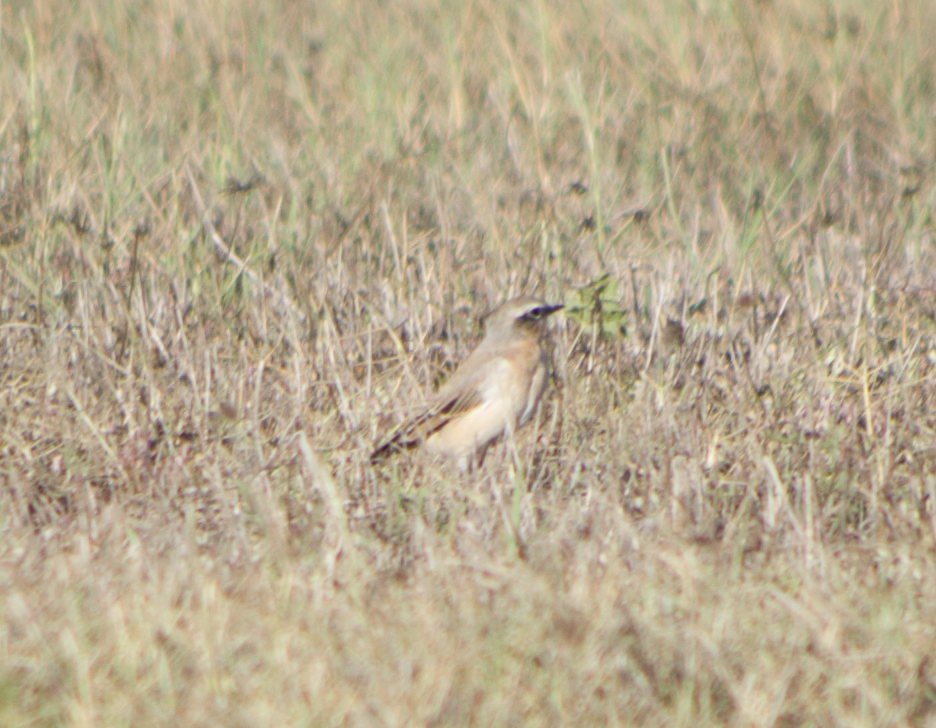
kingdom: Animalia
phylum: Chordata
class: Aves
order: Passeriformes
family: Muscicapidae
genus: Oenanthe
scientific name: Oenanthe oenanthe
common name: Northern wheatear
